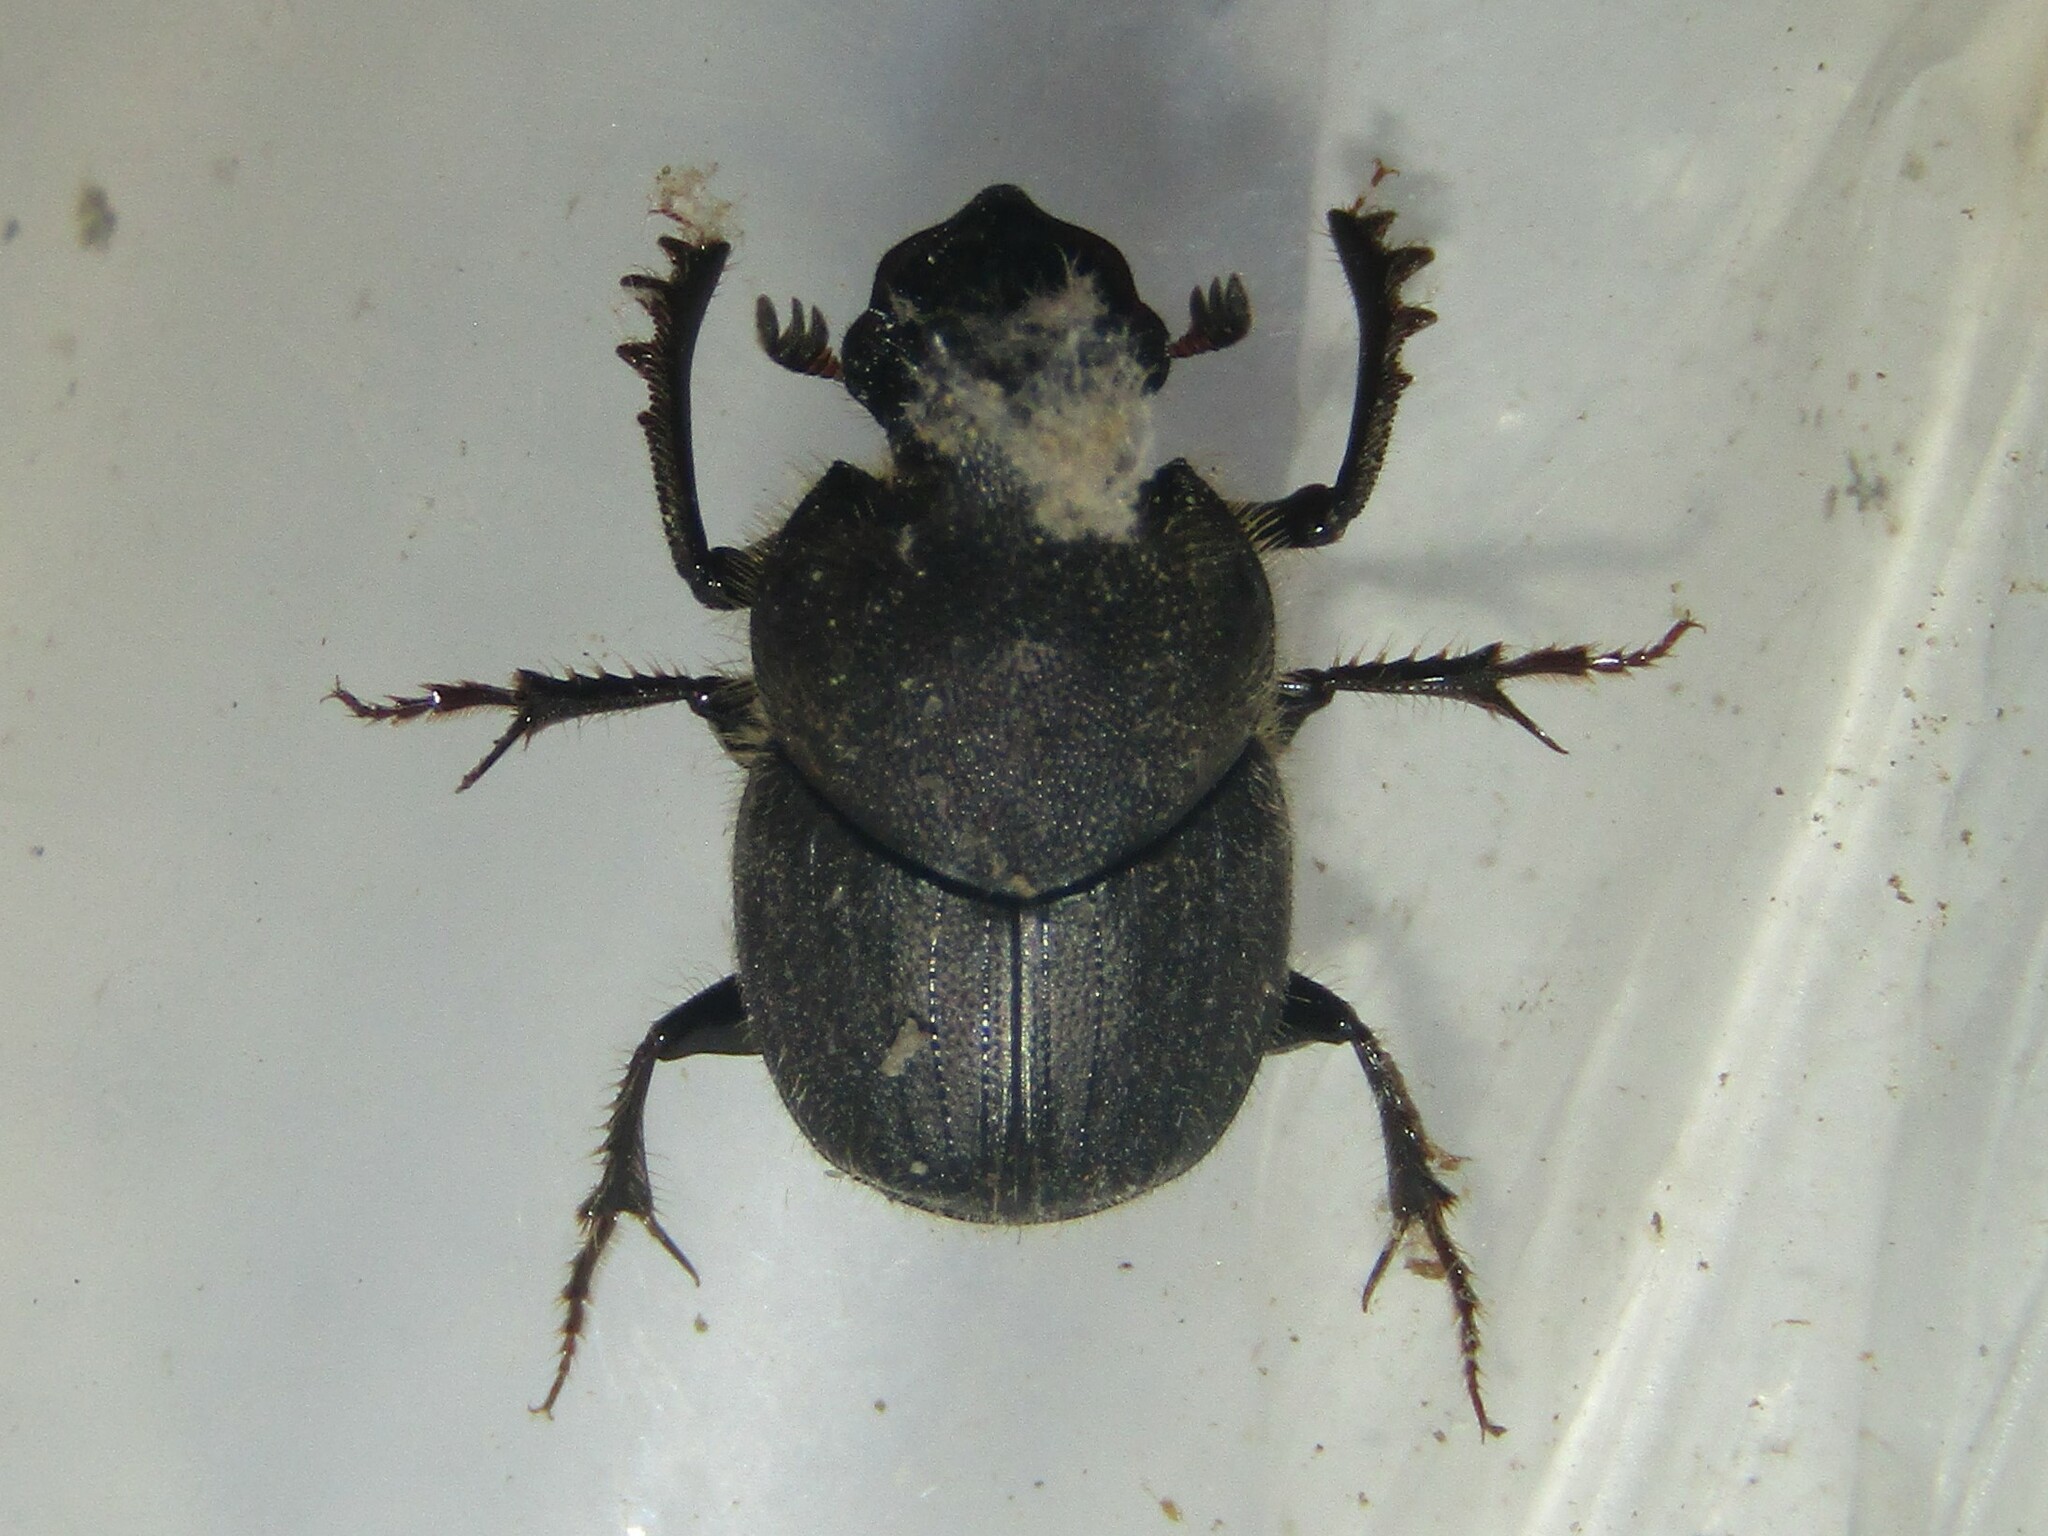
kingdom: Animalia
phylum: Arthropoda
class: Insecta
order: Coleoptera
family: Scarabaeidae
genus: Onthophagus
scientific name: Onthophagus hecate
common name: Scooped scarab
